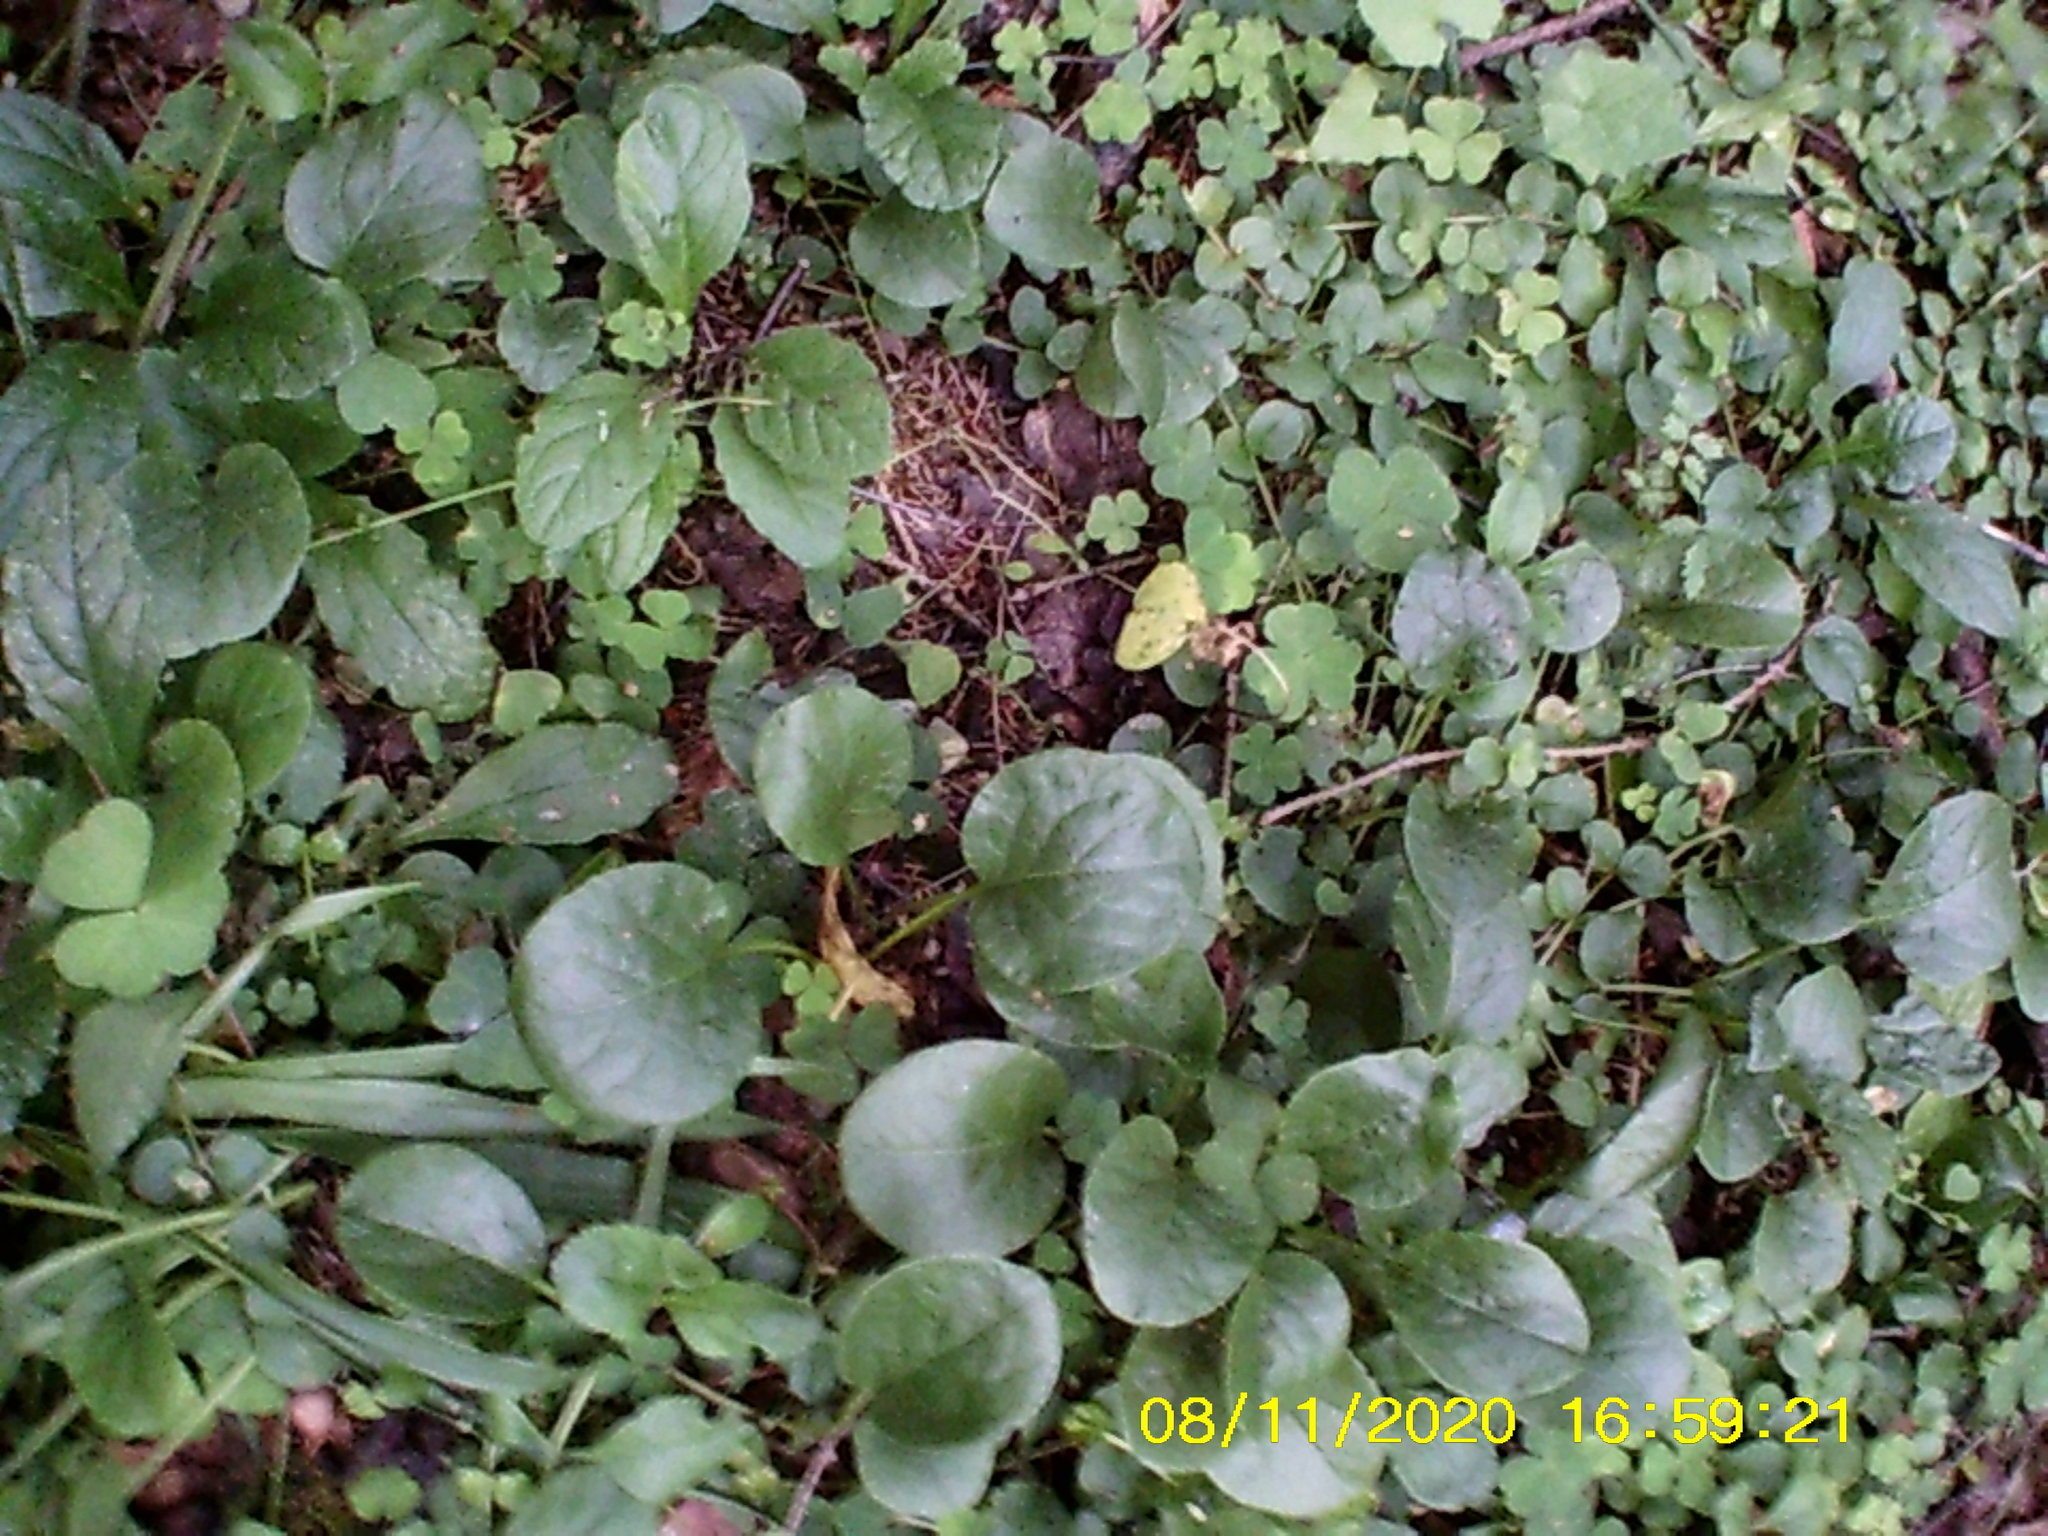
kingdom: Plantae
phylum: Tracheophyta
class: Magnoliopsida
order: Ericales
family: Ericaceae
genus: Pyrola
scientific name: Pyrola
